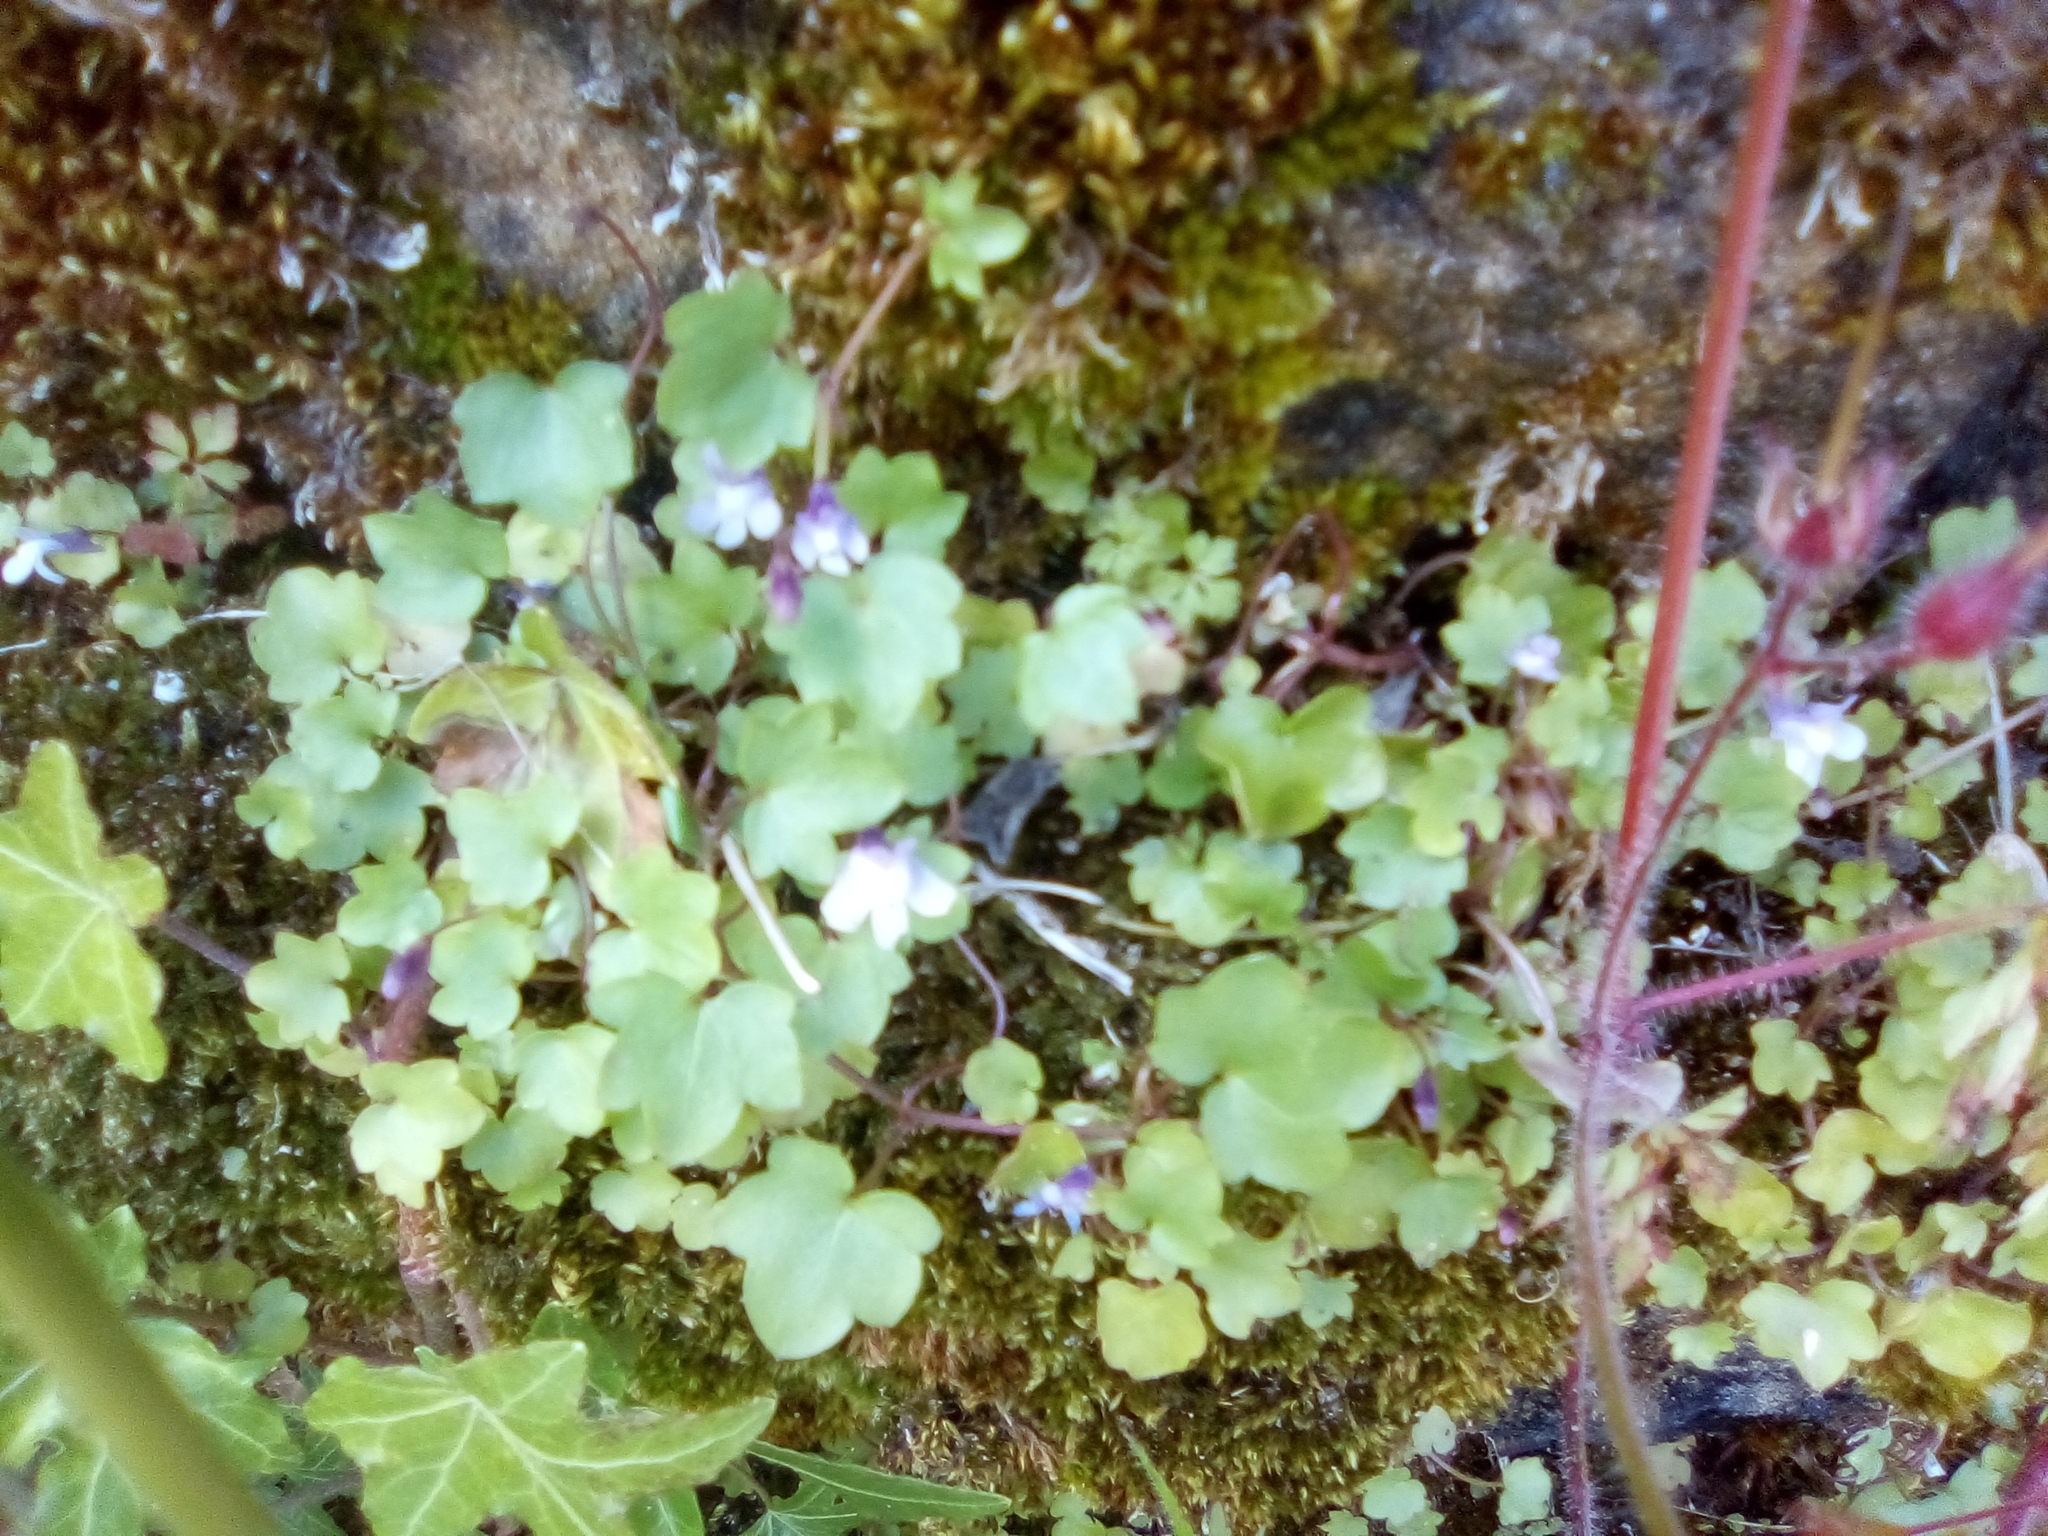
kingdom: Plantae
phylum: Tracheophyta
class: Magnoliopsida
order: Lamiales
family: Plantaginaceae
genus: Cymbalaria
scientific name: Cymbalaria muralis
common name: Ivy-leaved toadflax
